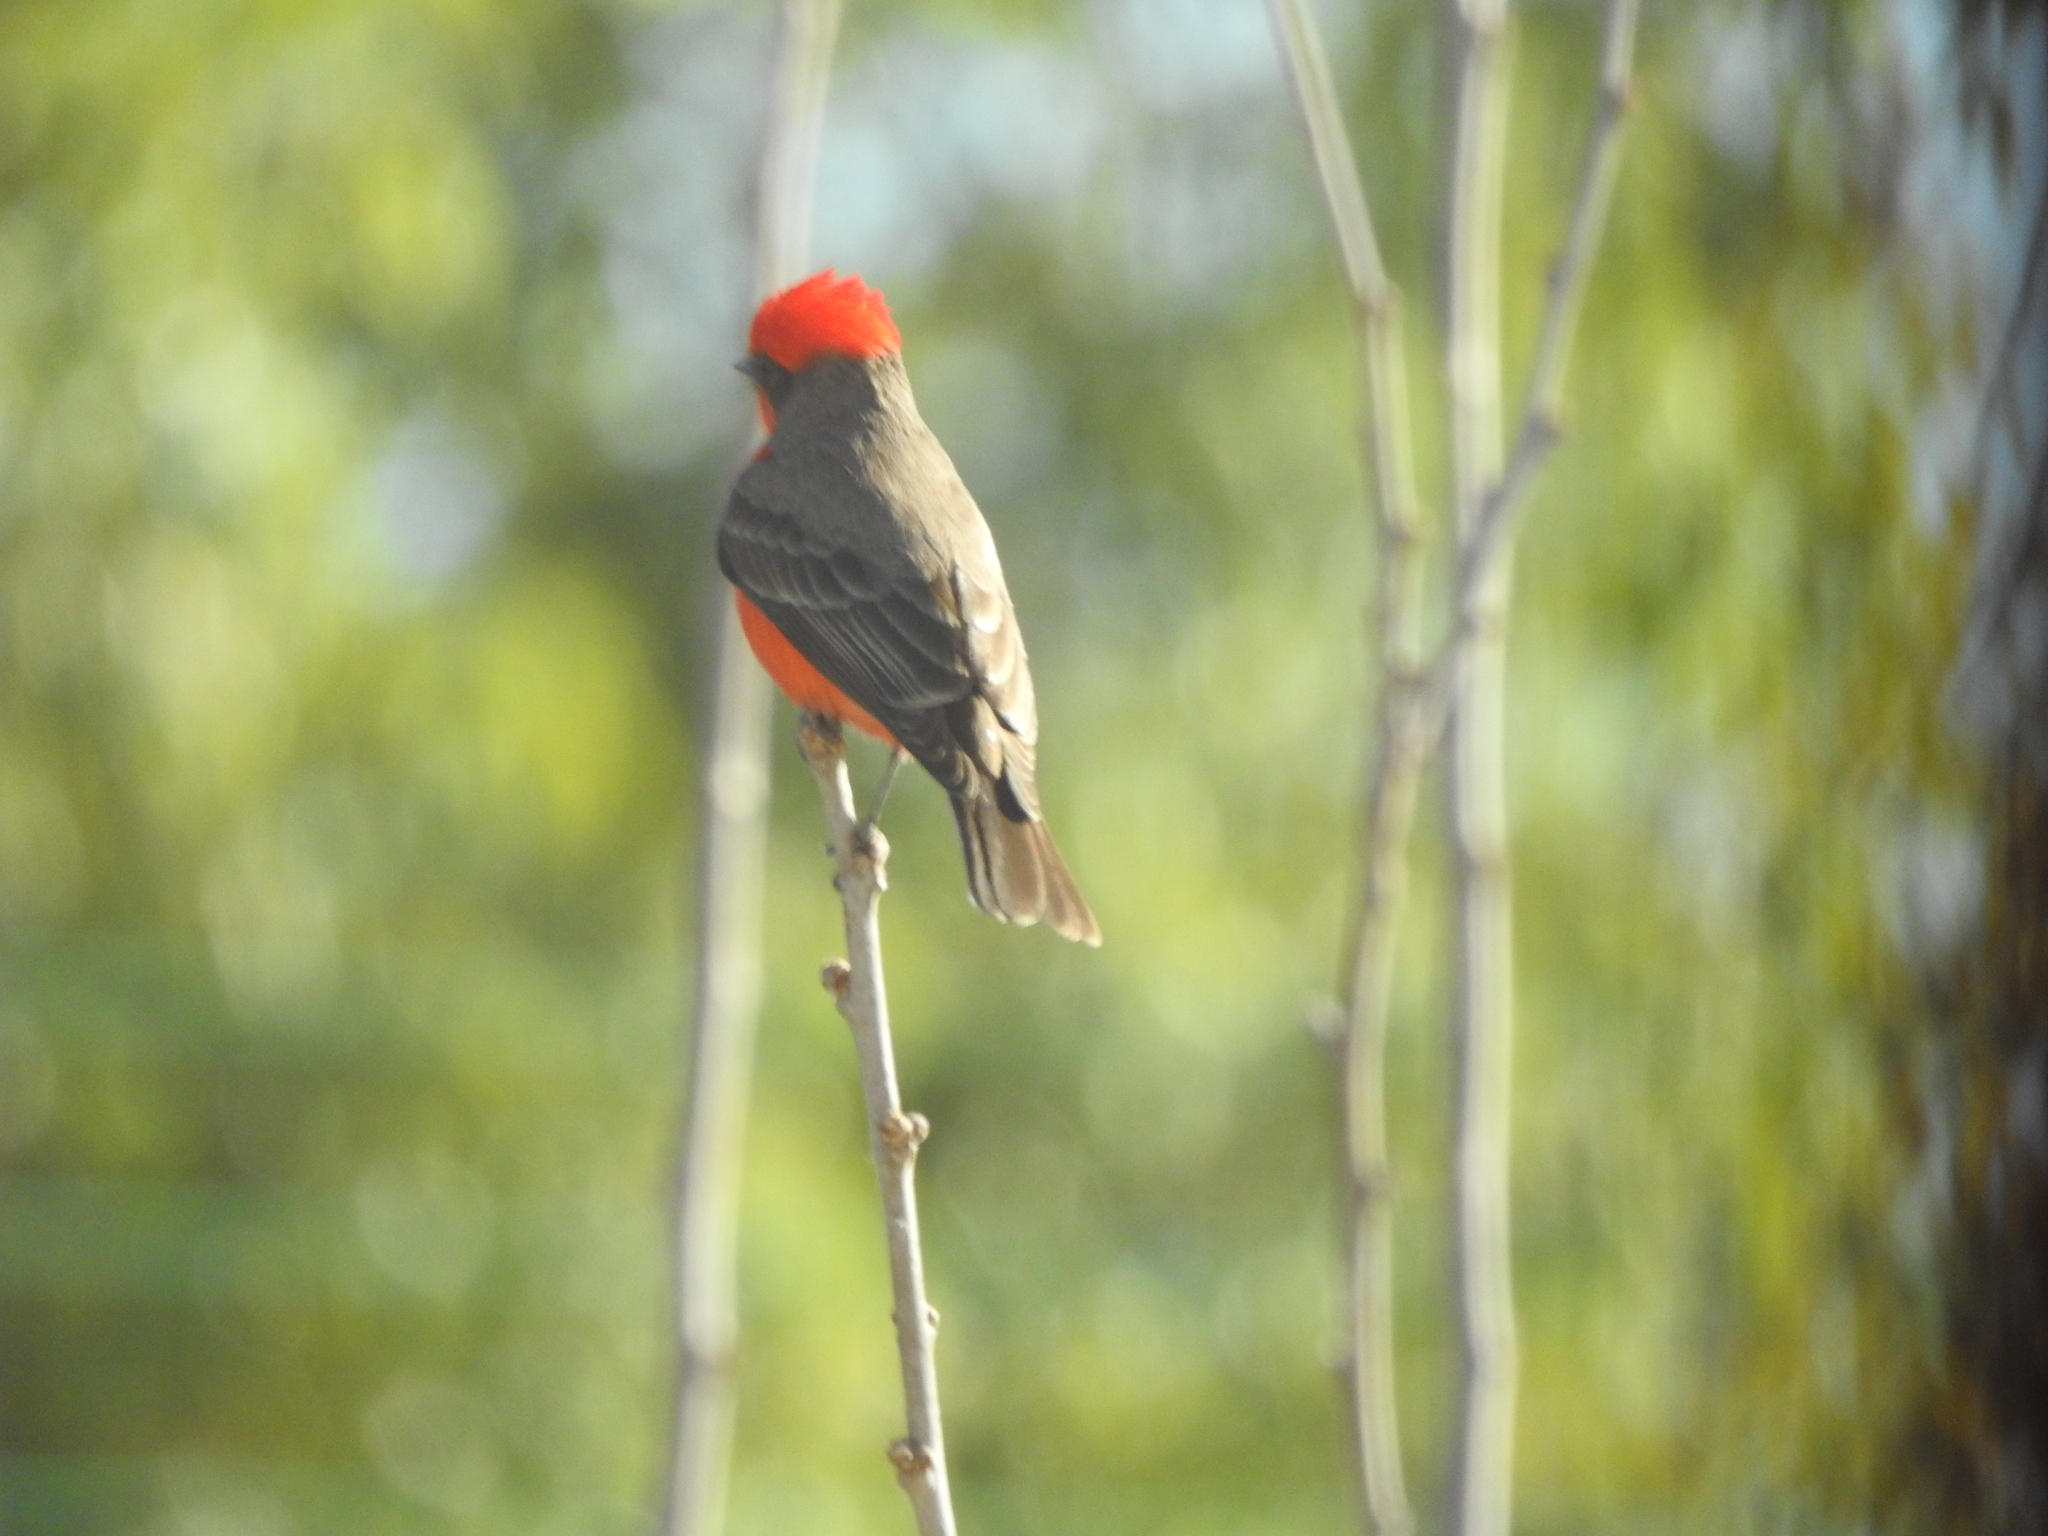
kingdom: Animalia
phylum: Chordata
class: Aves
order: Passeriformes
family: Tyrannidae
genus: Pyrocephalus
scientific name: Pyrocephalus rubinus
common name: Vermilion flycatcher
